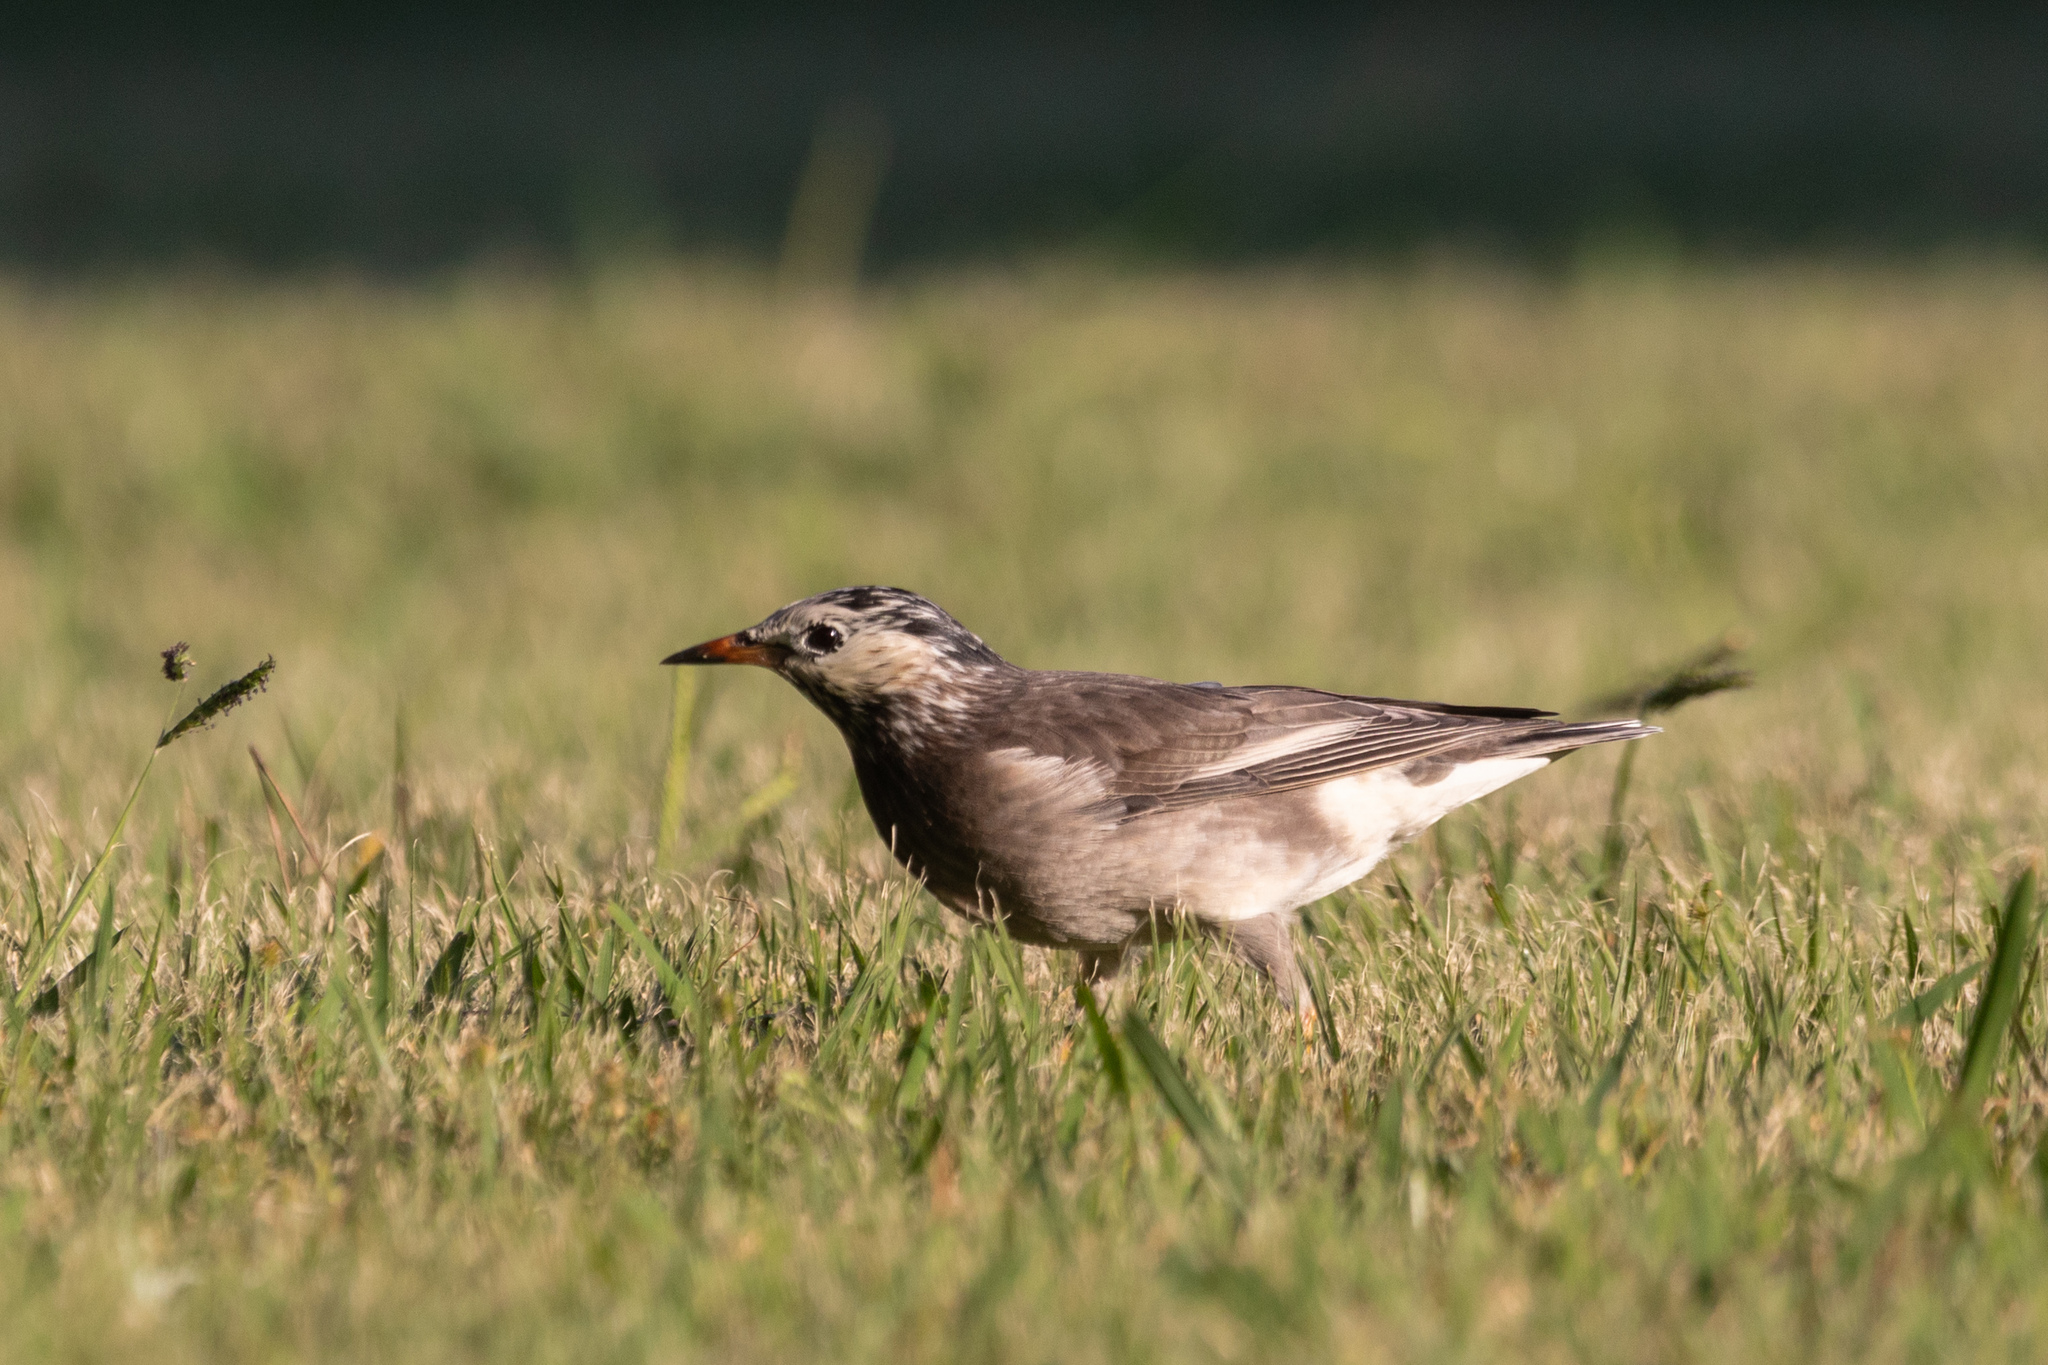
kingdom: Animalia
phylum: Chordata
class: Aves
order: Passeriformes
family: Sturnidae
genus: Spodiopsar
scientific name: Spodiopsar cineraceus
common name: White-cheeked starling
